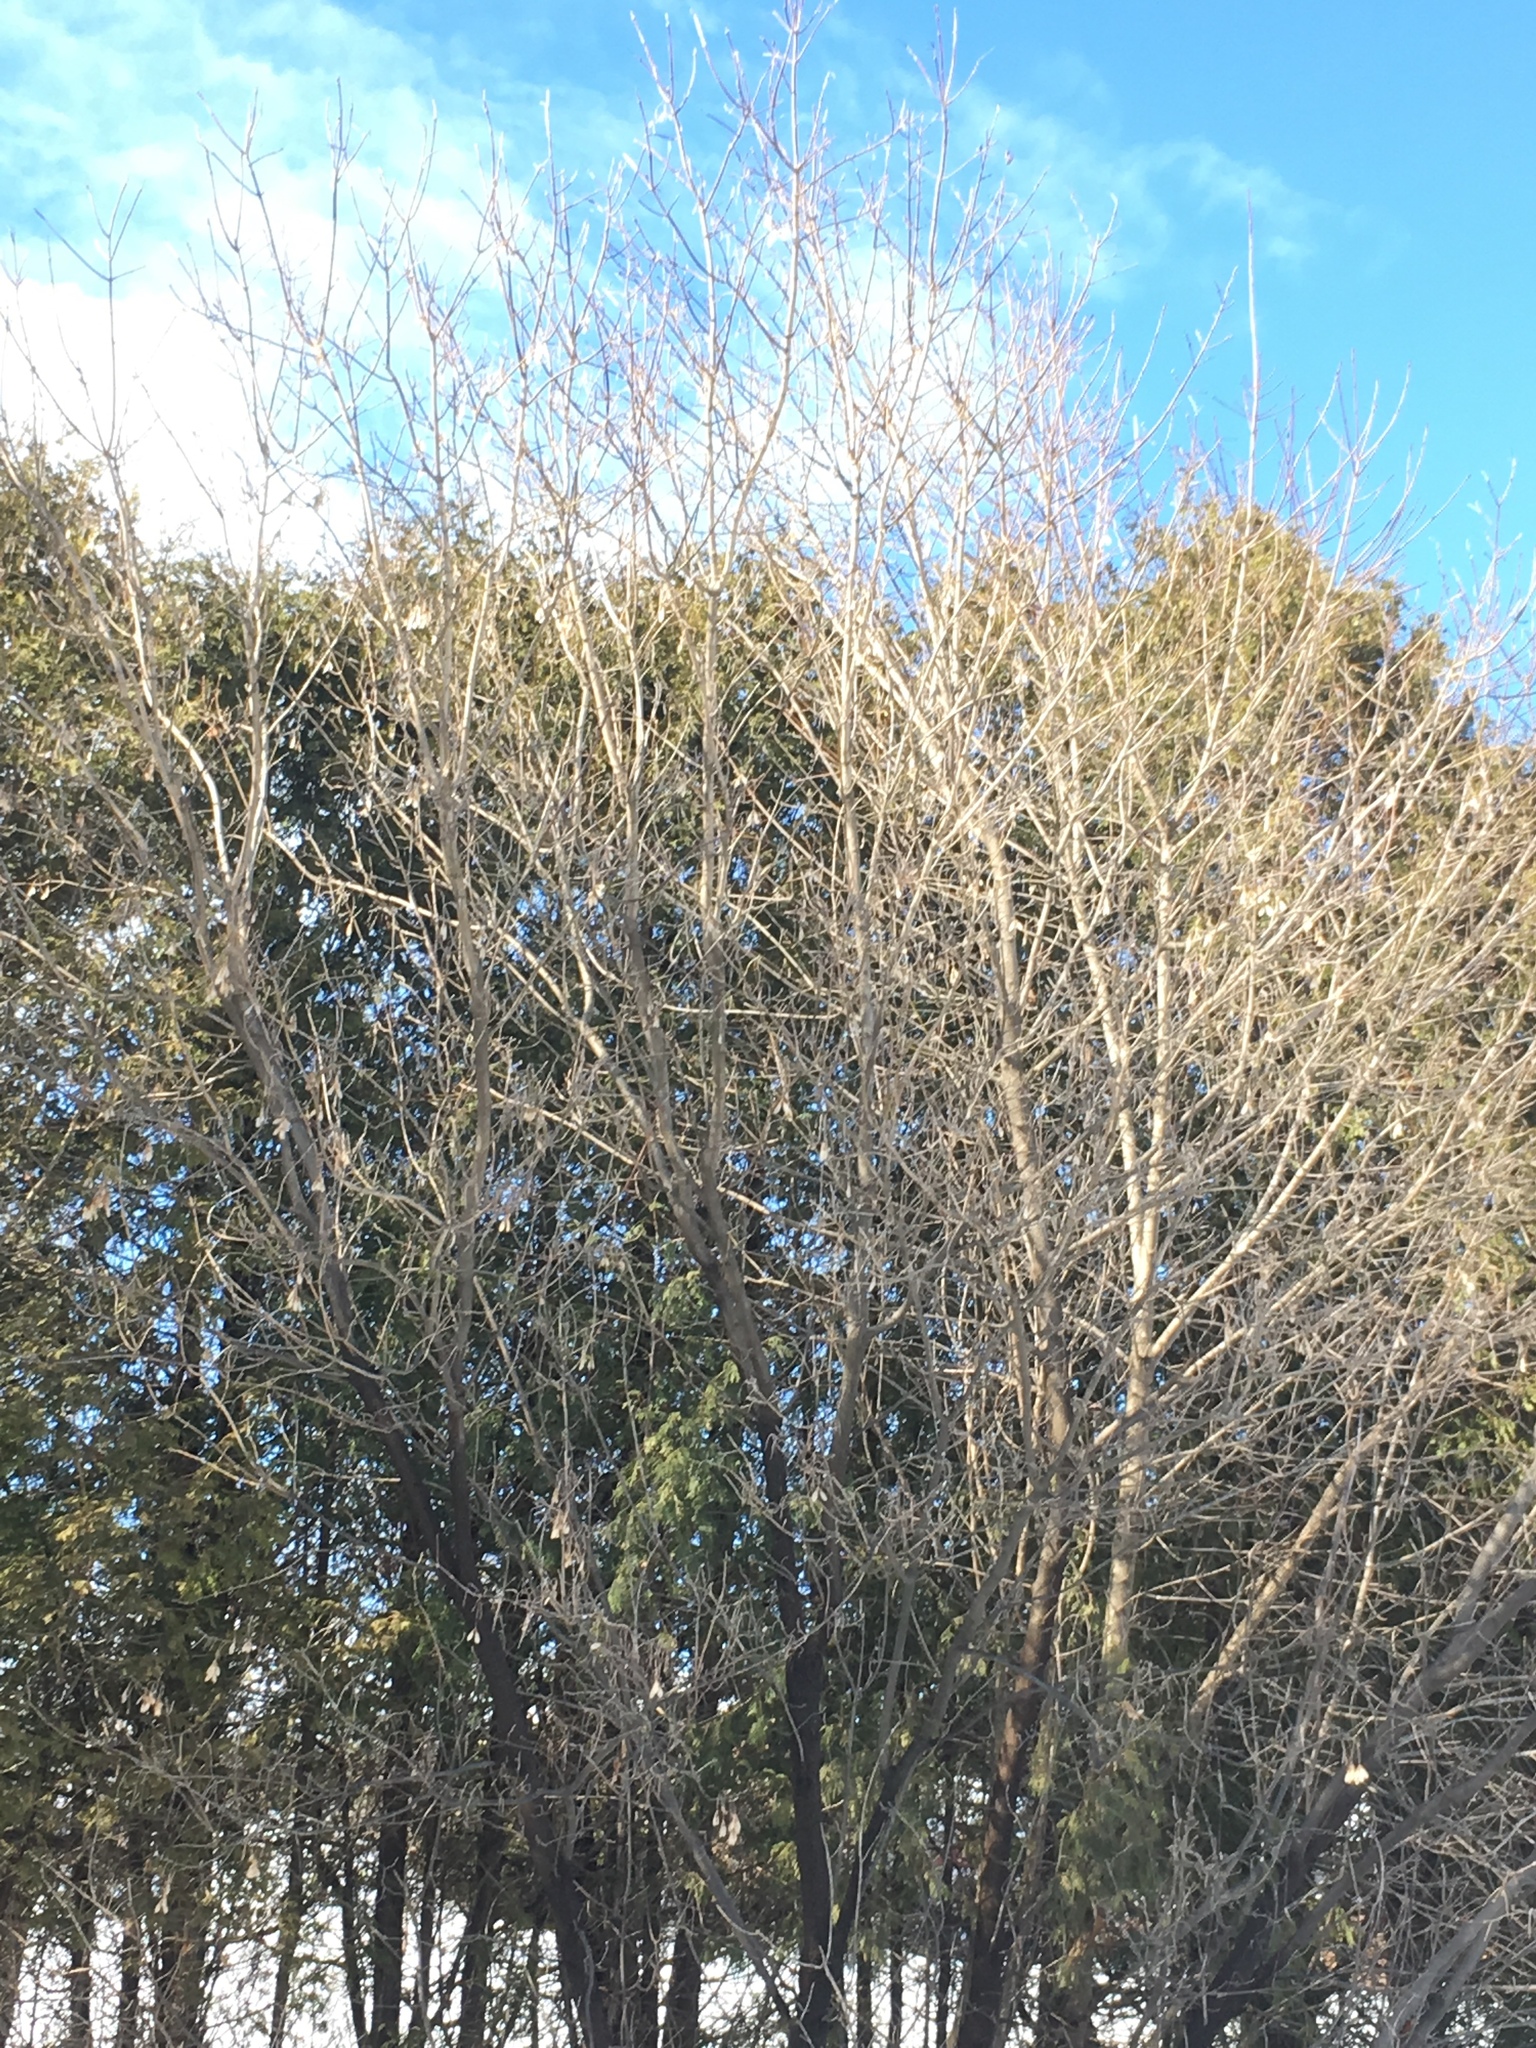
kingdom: Plantae
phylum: Tracheophyta
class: Magnoliopsida
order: Sapindales
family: Sapindaceae
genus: Acer
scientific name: Acer negundo
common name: Ashleaf maple
